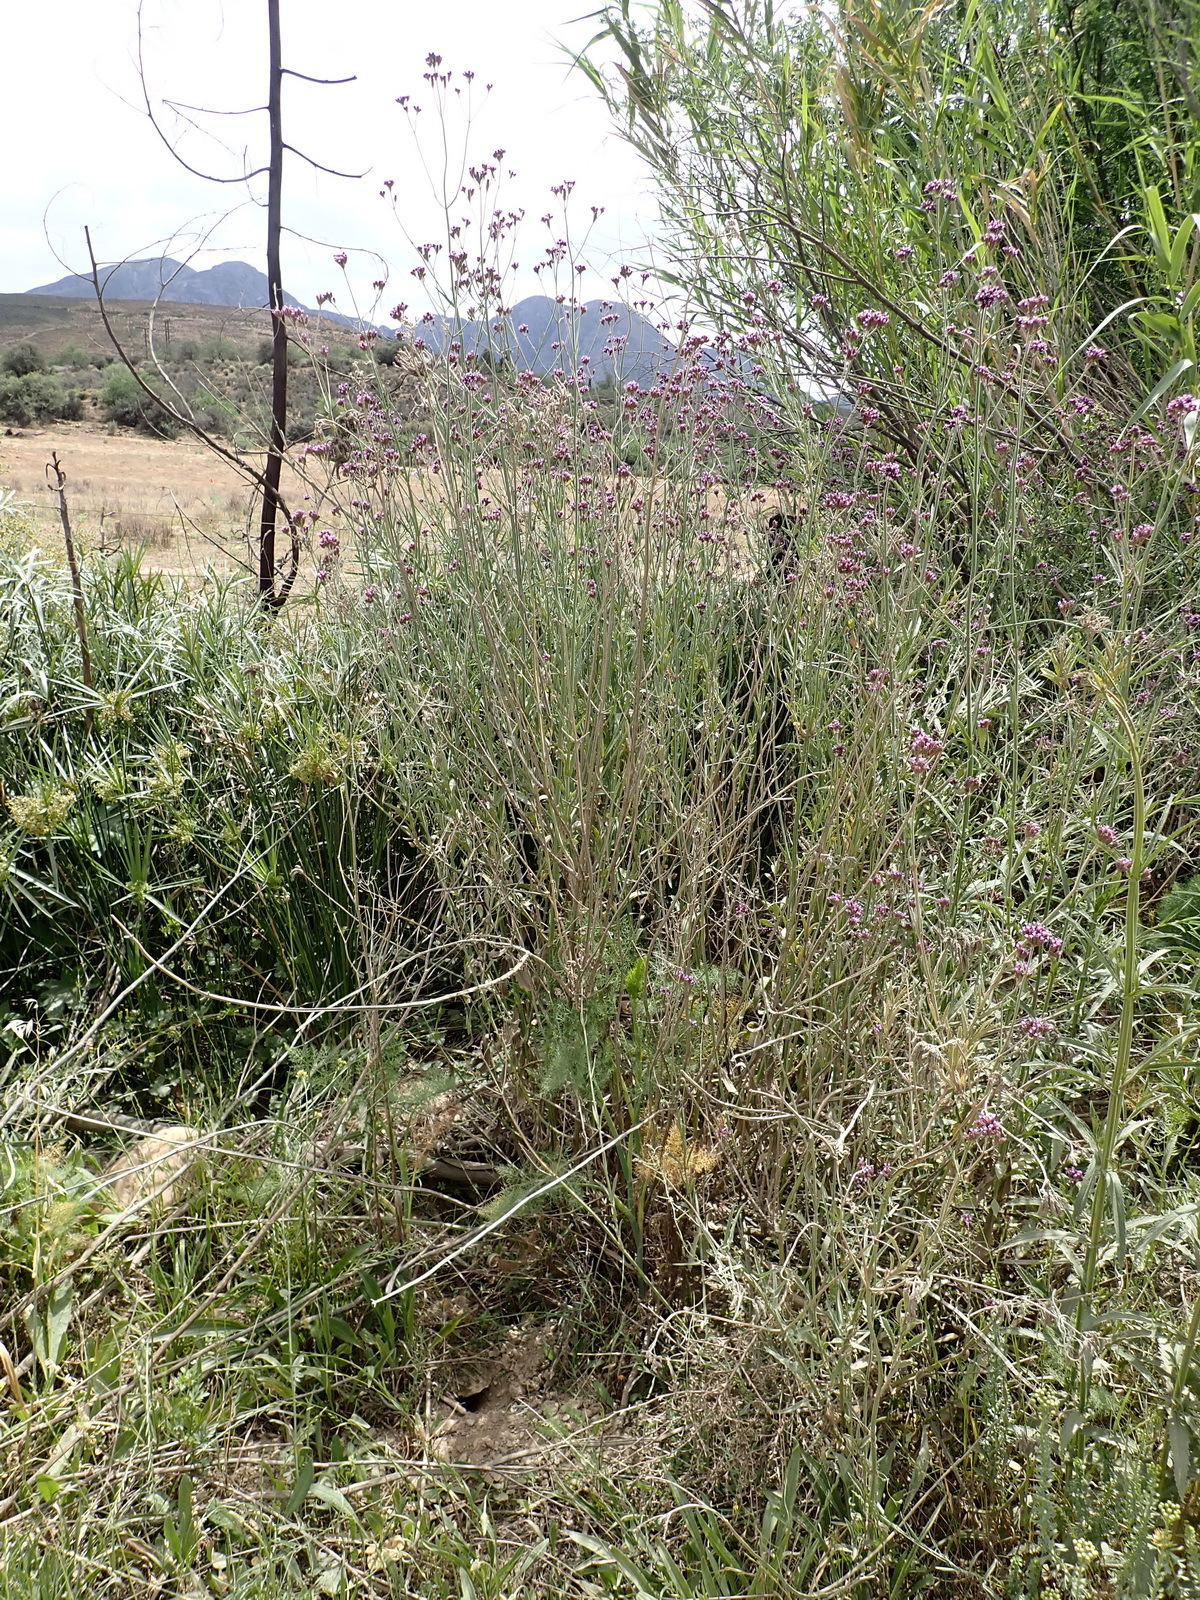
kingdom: Plantae
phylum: Tracheophyta
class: Magnoliopsida
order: Lamiales
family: Verbenaceae
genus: Verbena
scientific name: Verbena bonariensis
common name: Purpletop vervain
